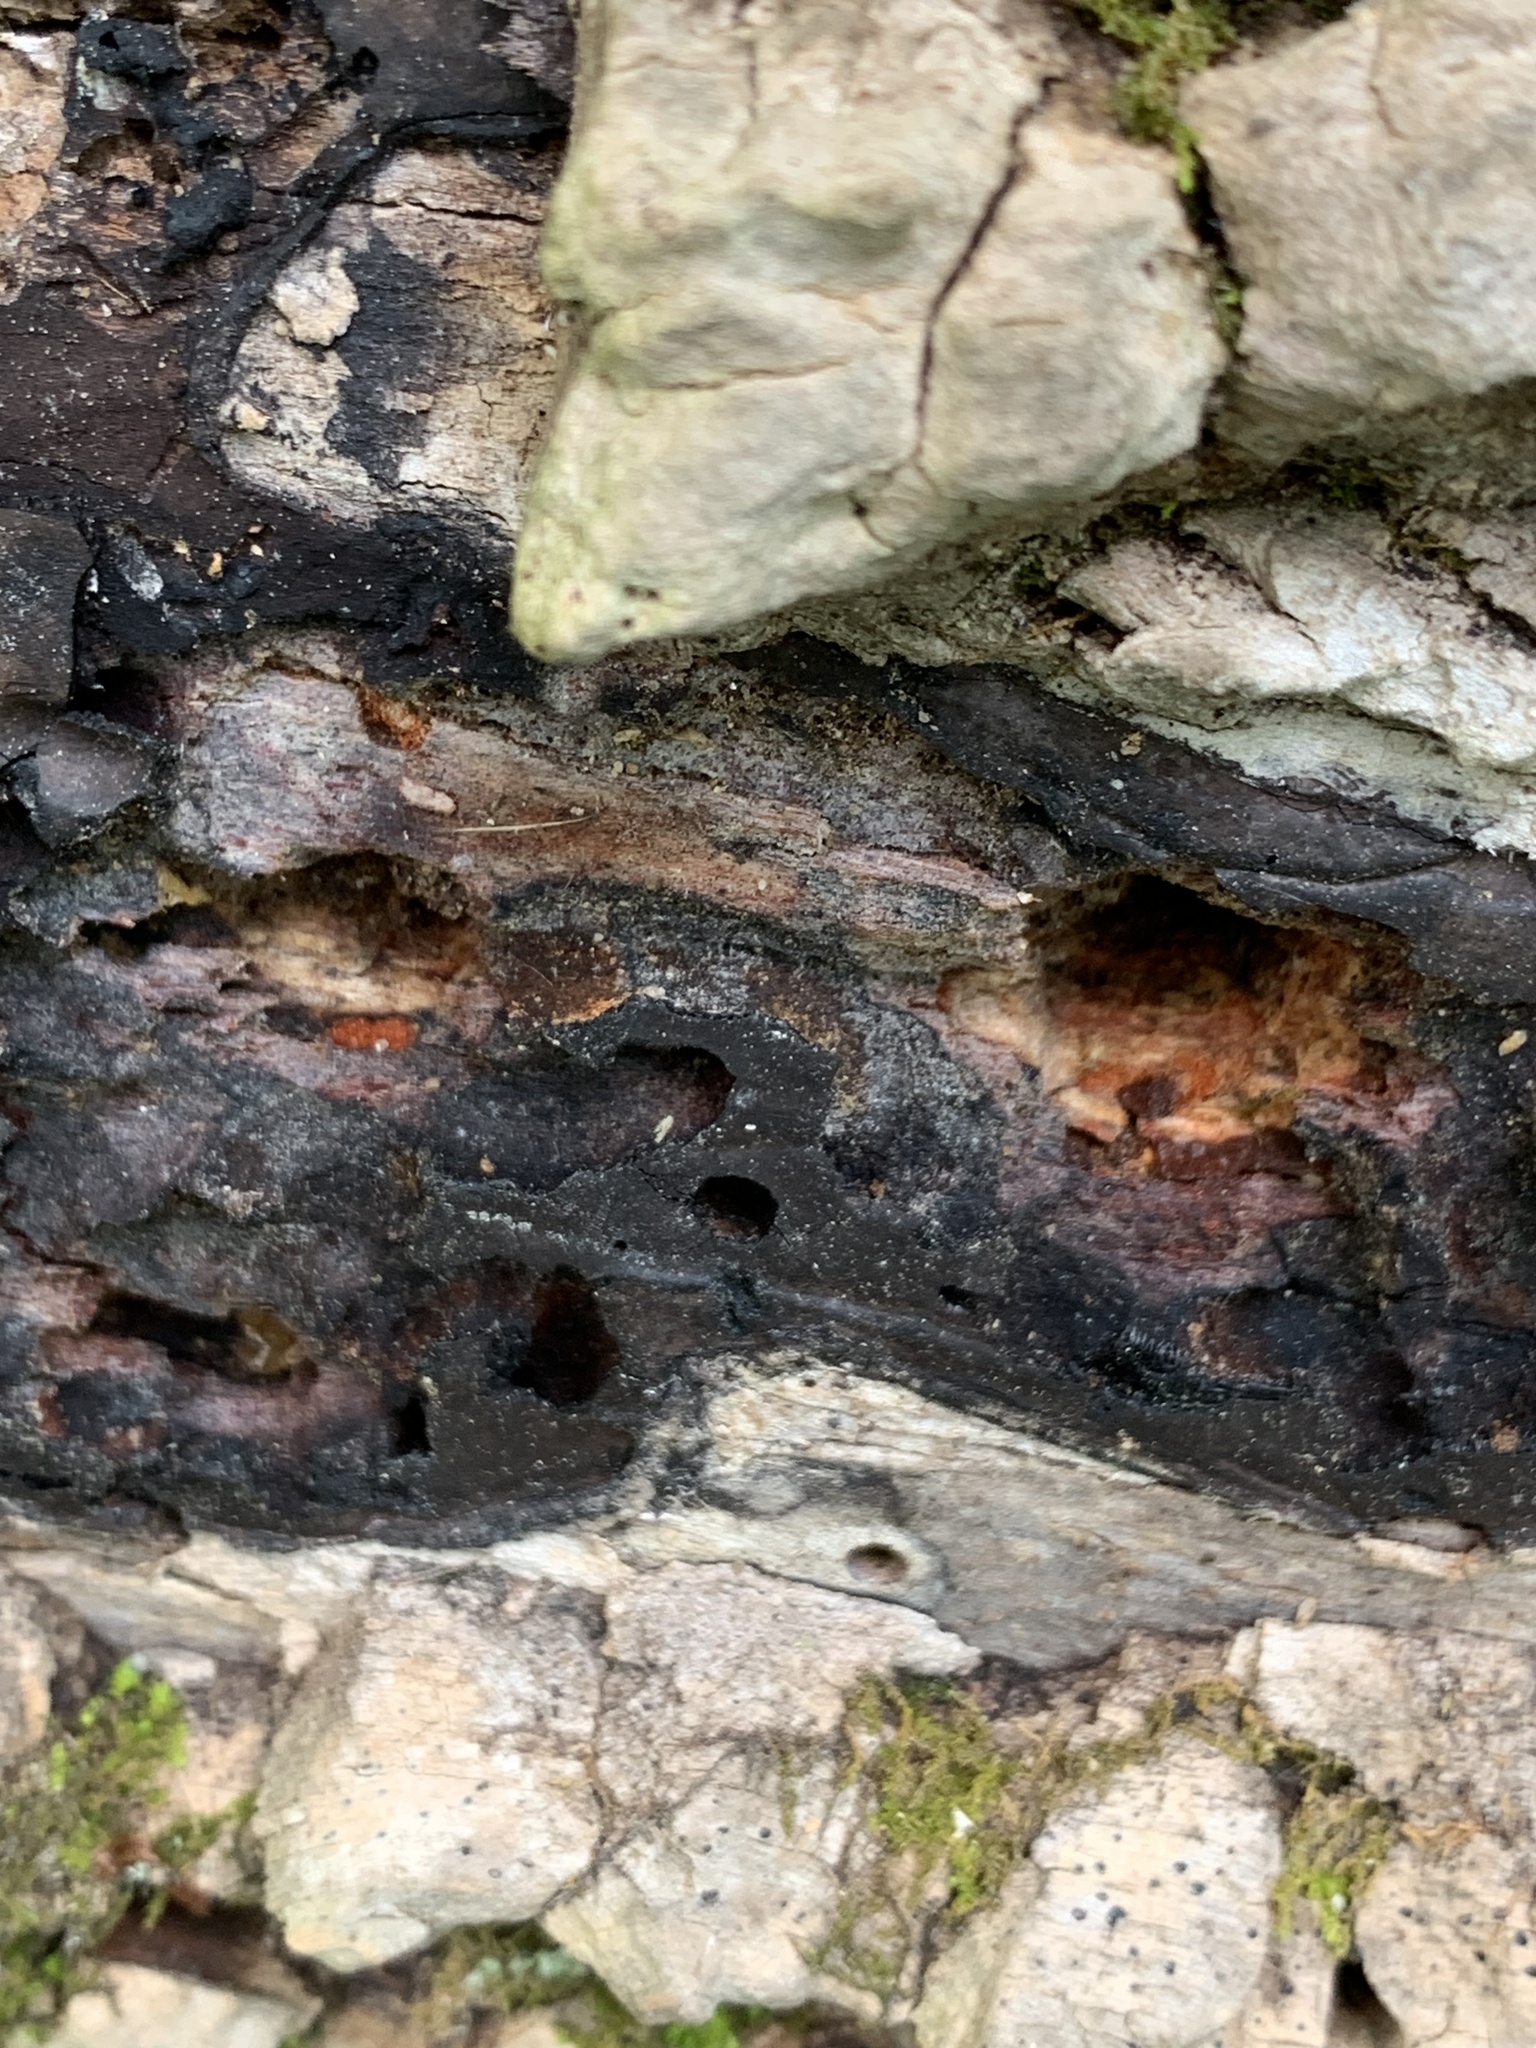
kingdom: Fungi
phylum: Ascomycota
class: Sordariomycetes
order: Xylariales
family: Graphostromataceae
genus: Camillea
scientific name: Camillea tinctor
